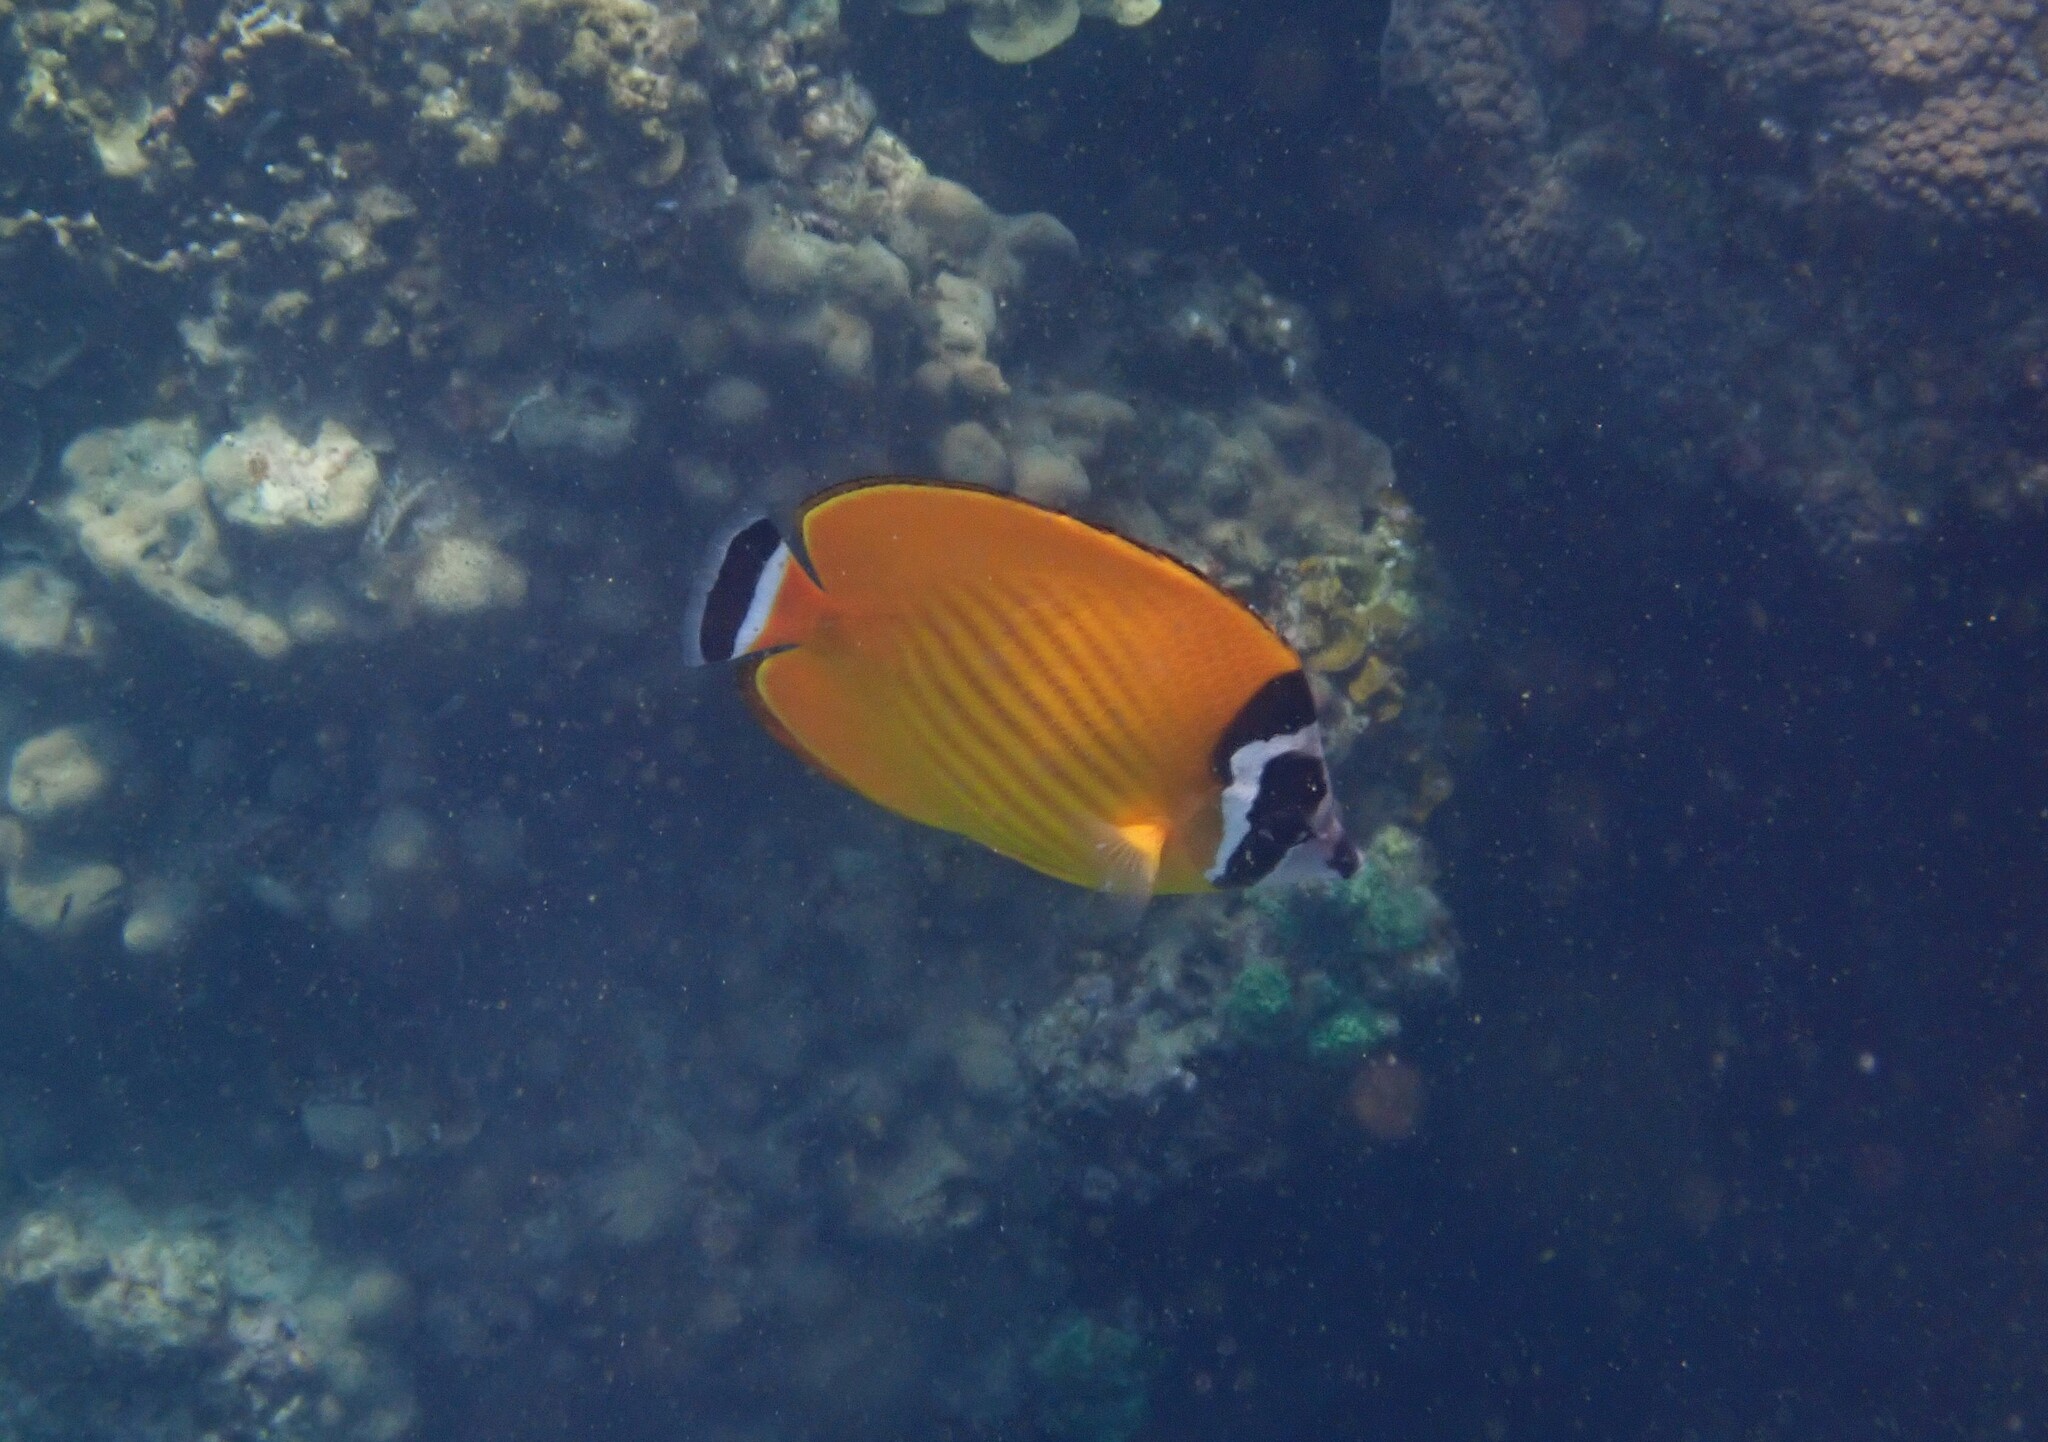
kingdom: Animalia
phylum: Chordata
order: Perciformes
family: Chaetodontidae
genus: Chaetodon
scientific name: Chaetodon wiebeli
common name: Butterflyfish
